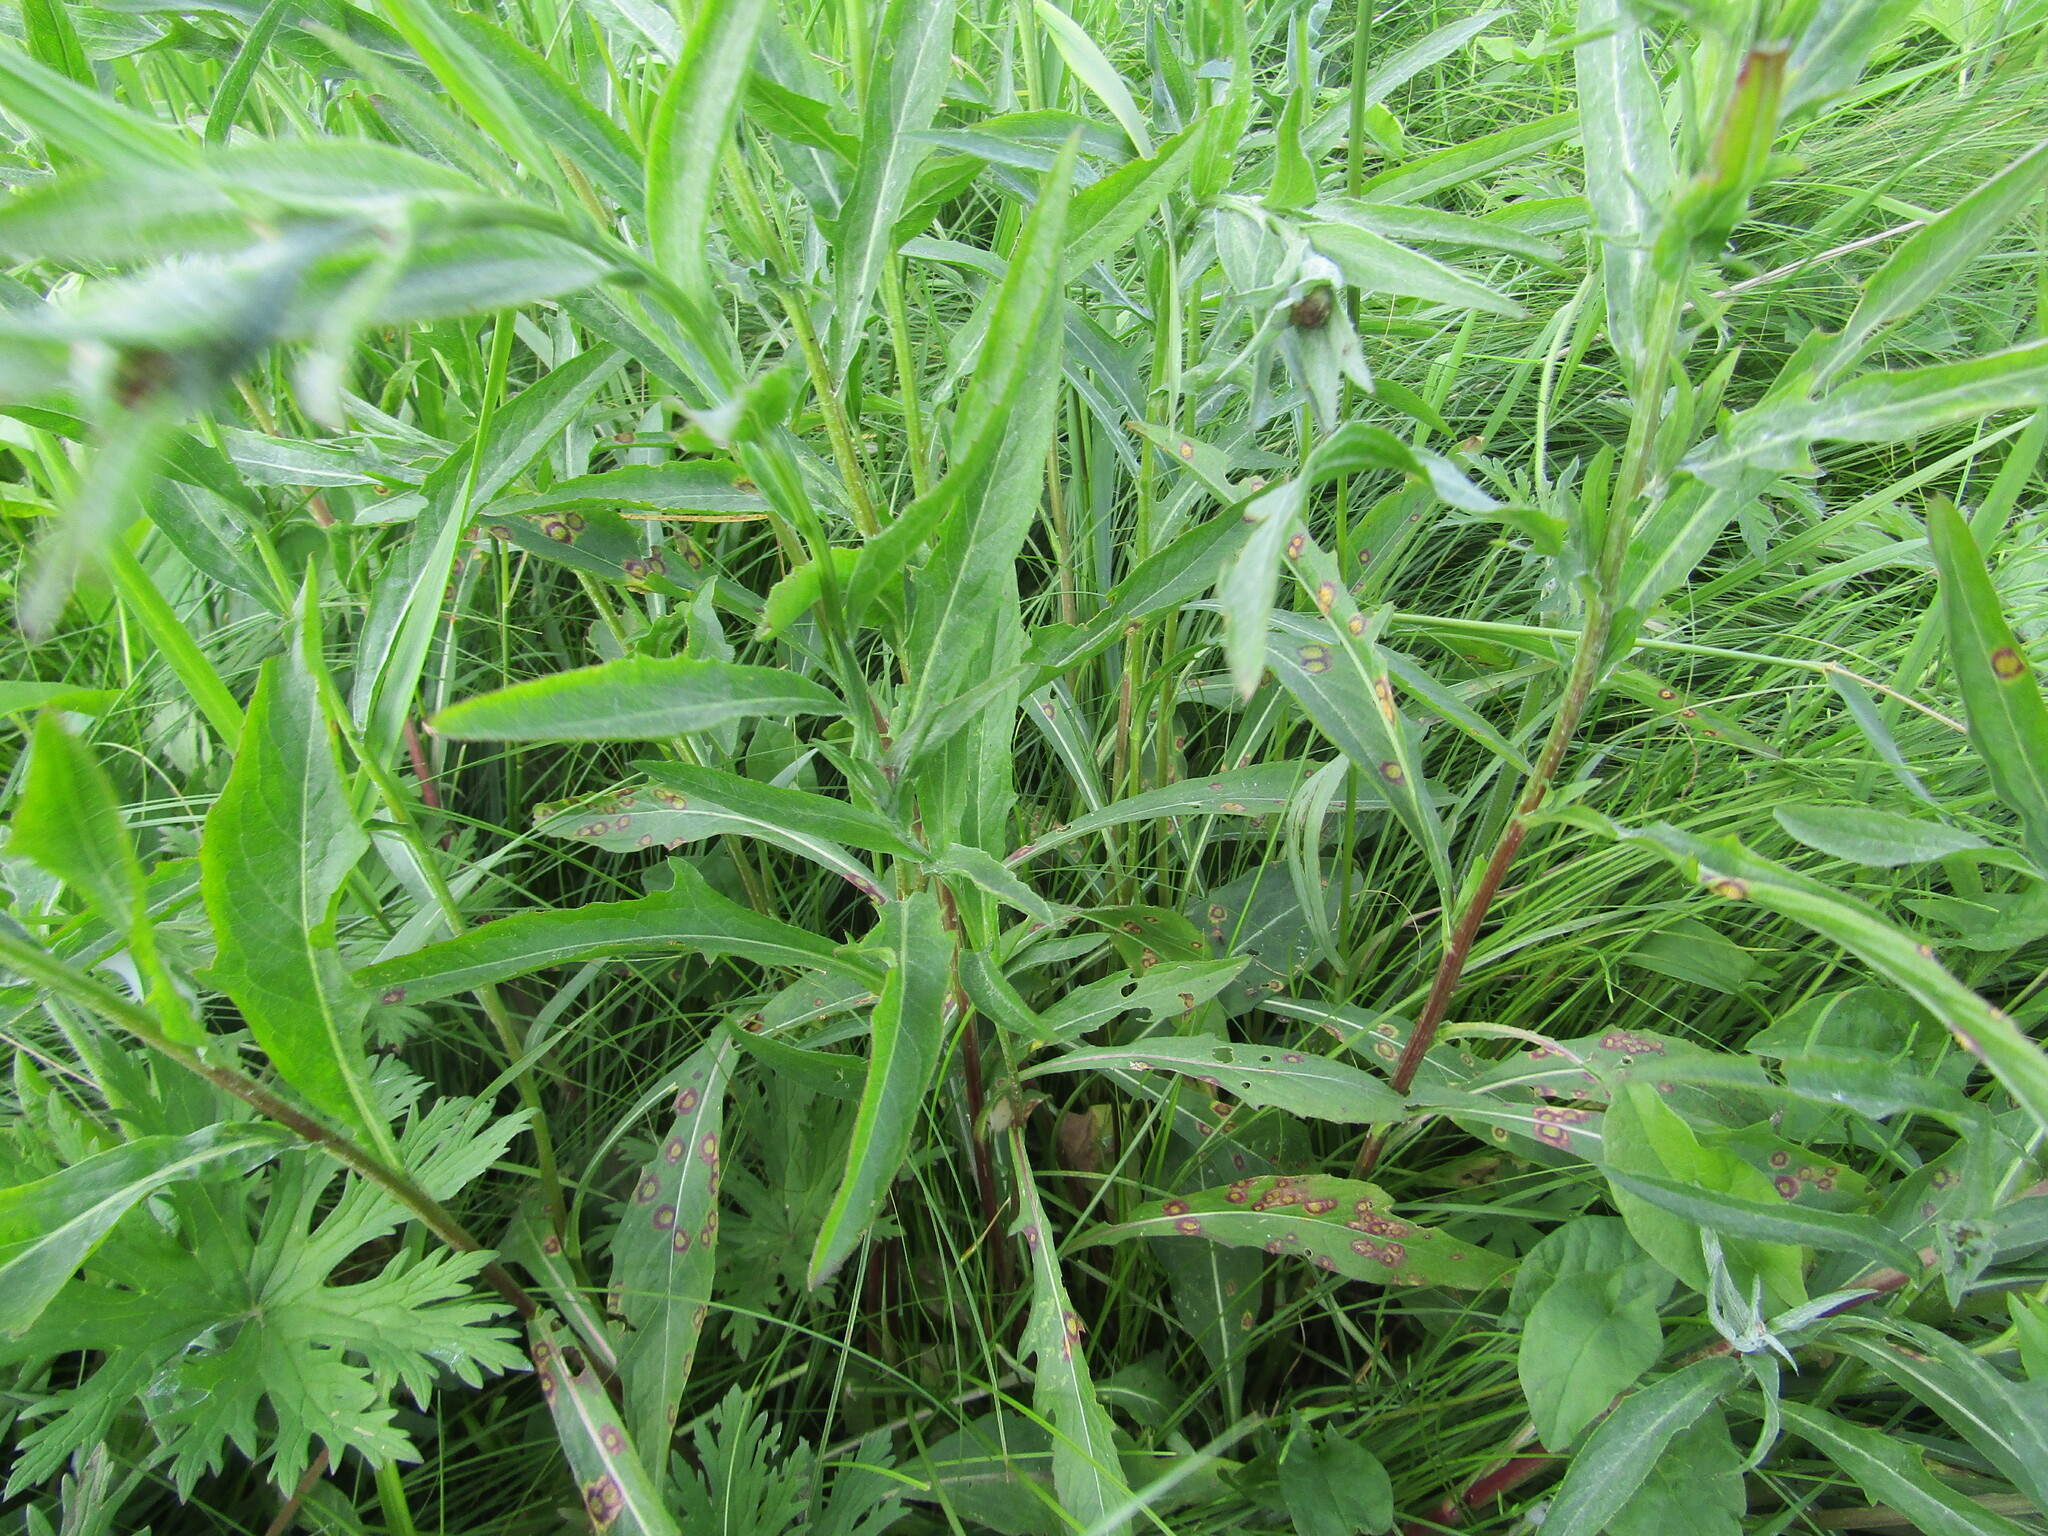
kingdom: Plantae
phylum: Tracheophyta
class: Magnoliopsida
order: Asterales
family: Asteraceae
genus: Centaurea
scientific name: Centaurea jacea
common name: Brown knapweed
